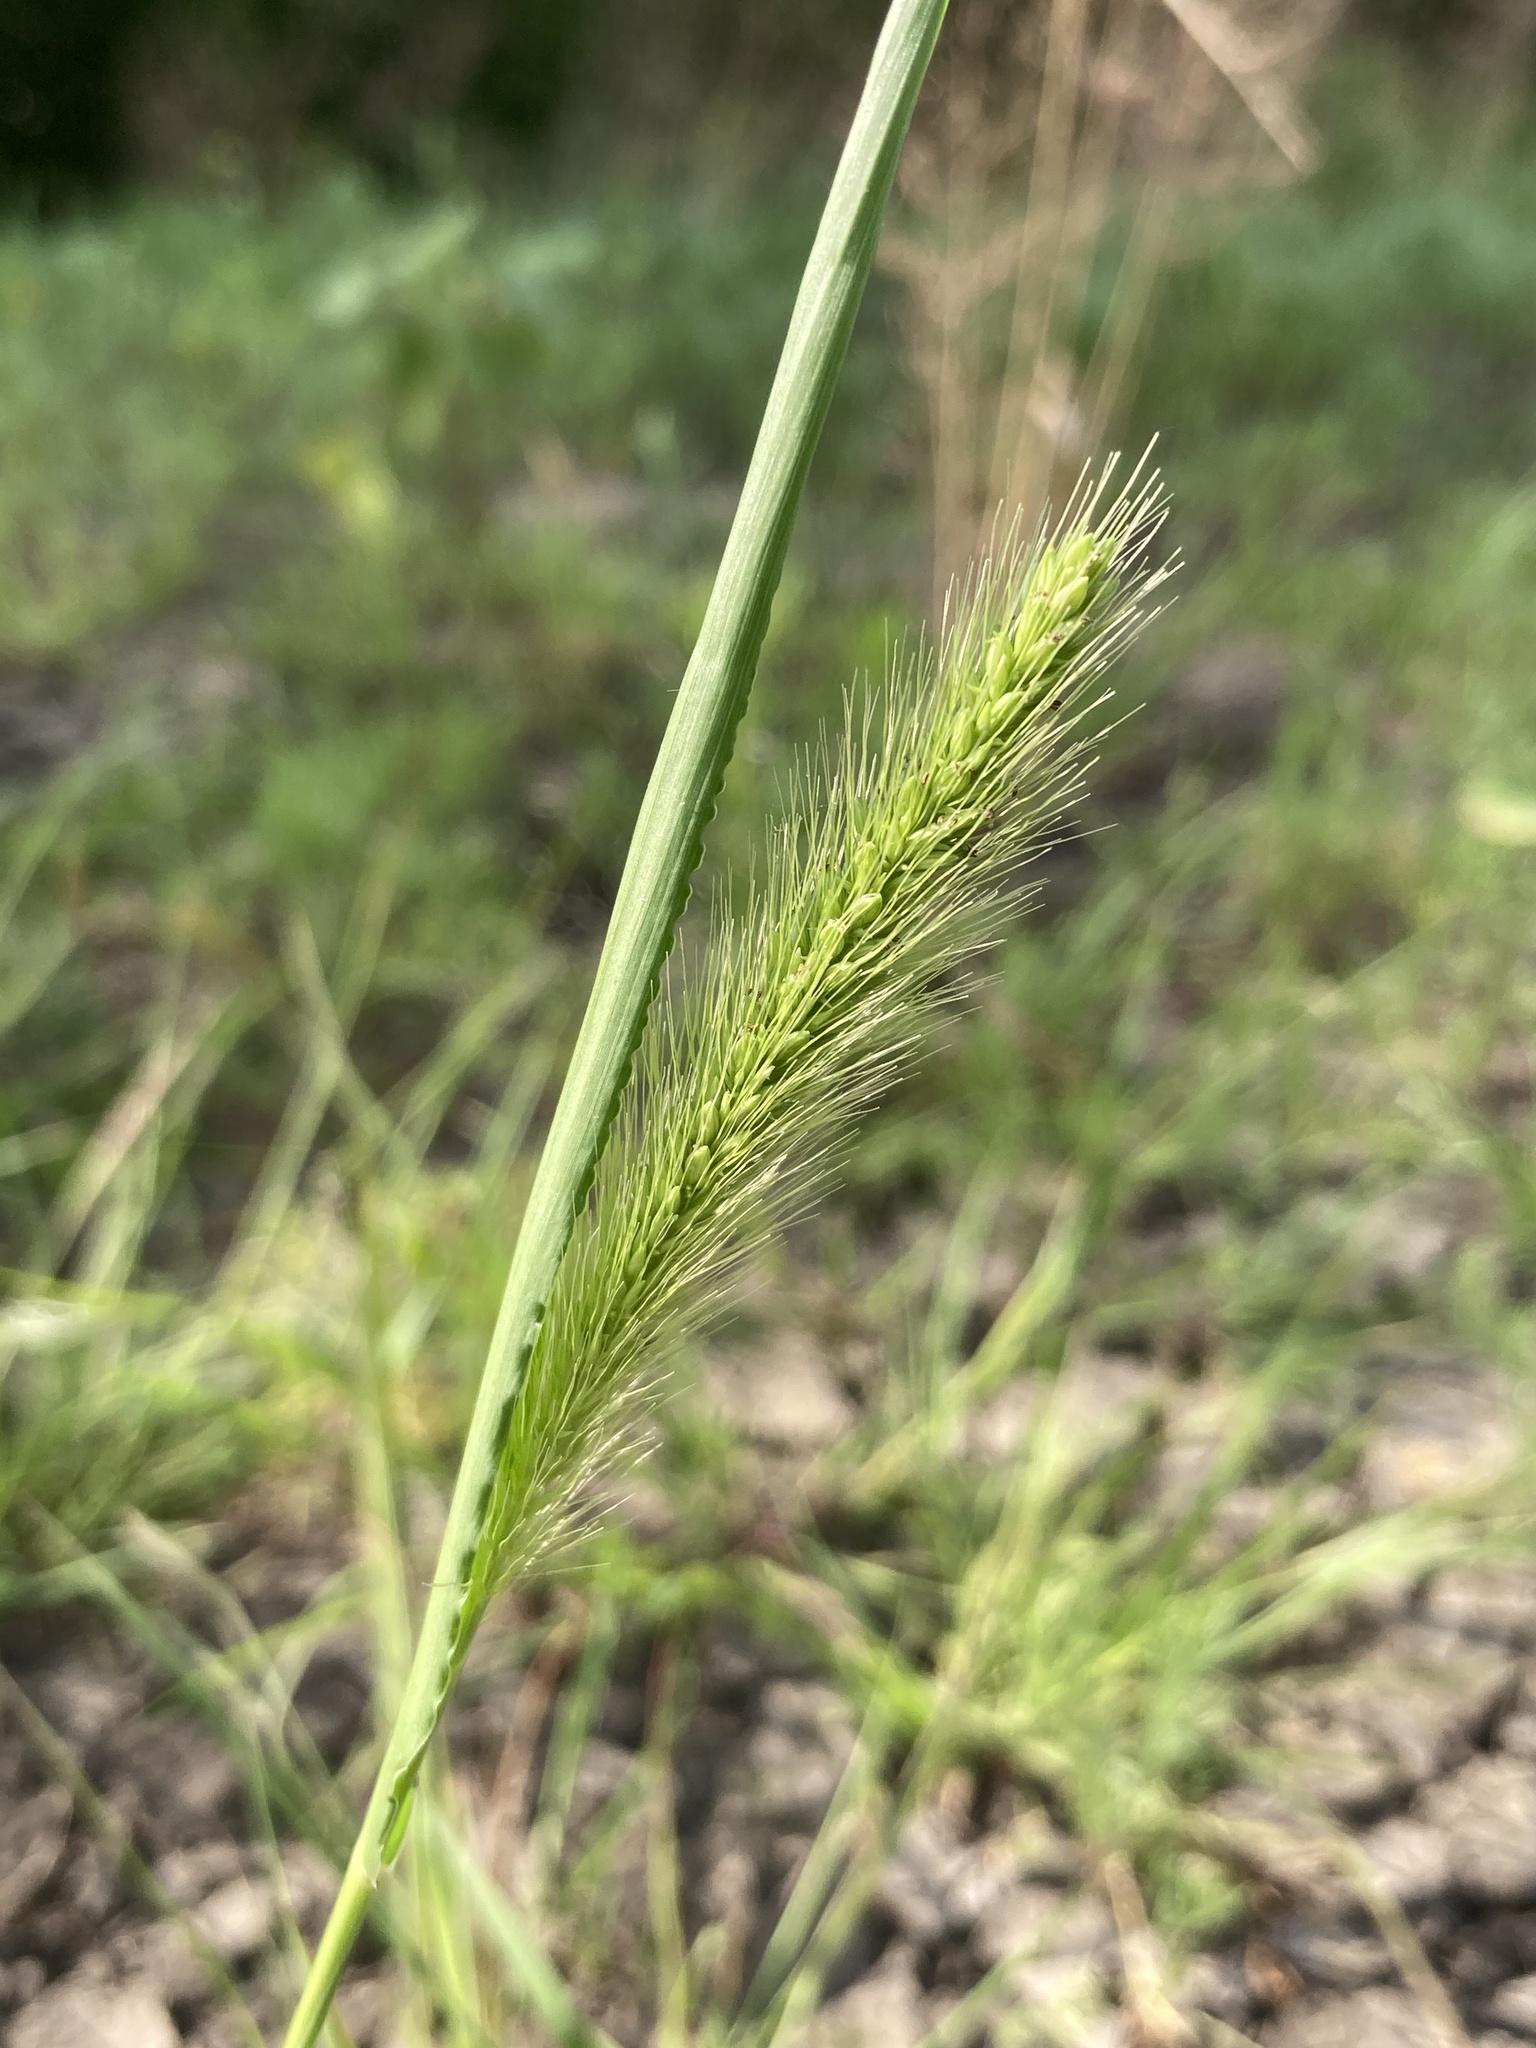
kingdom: Plantae
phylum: Tracheophyta
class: Liliopsida
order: Poales
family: Poaceae
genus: Setaria
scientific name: Setaria viridis
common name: Green bristlegrass
